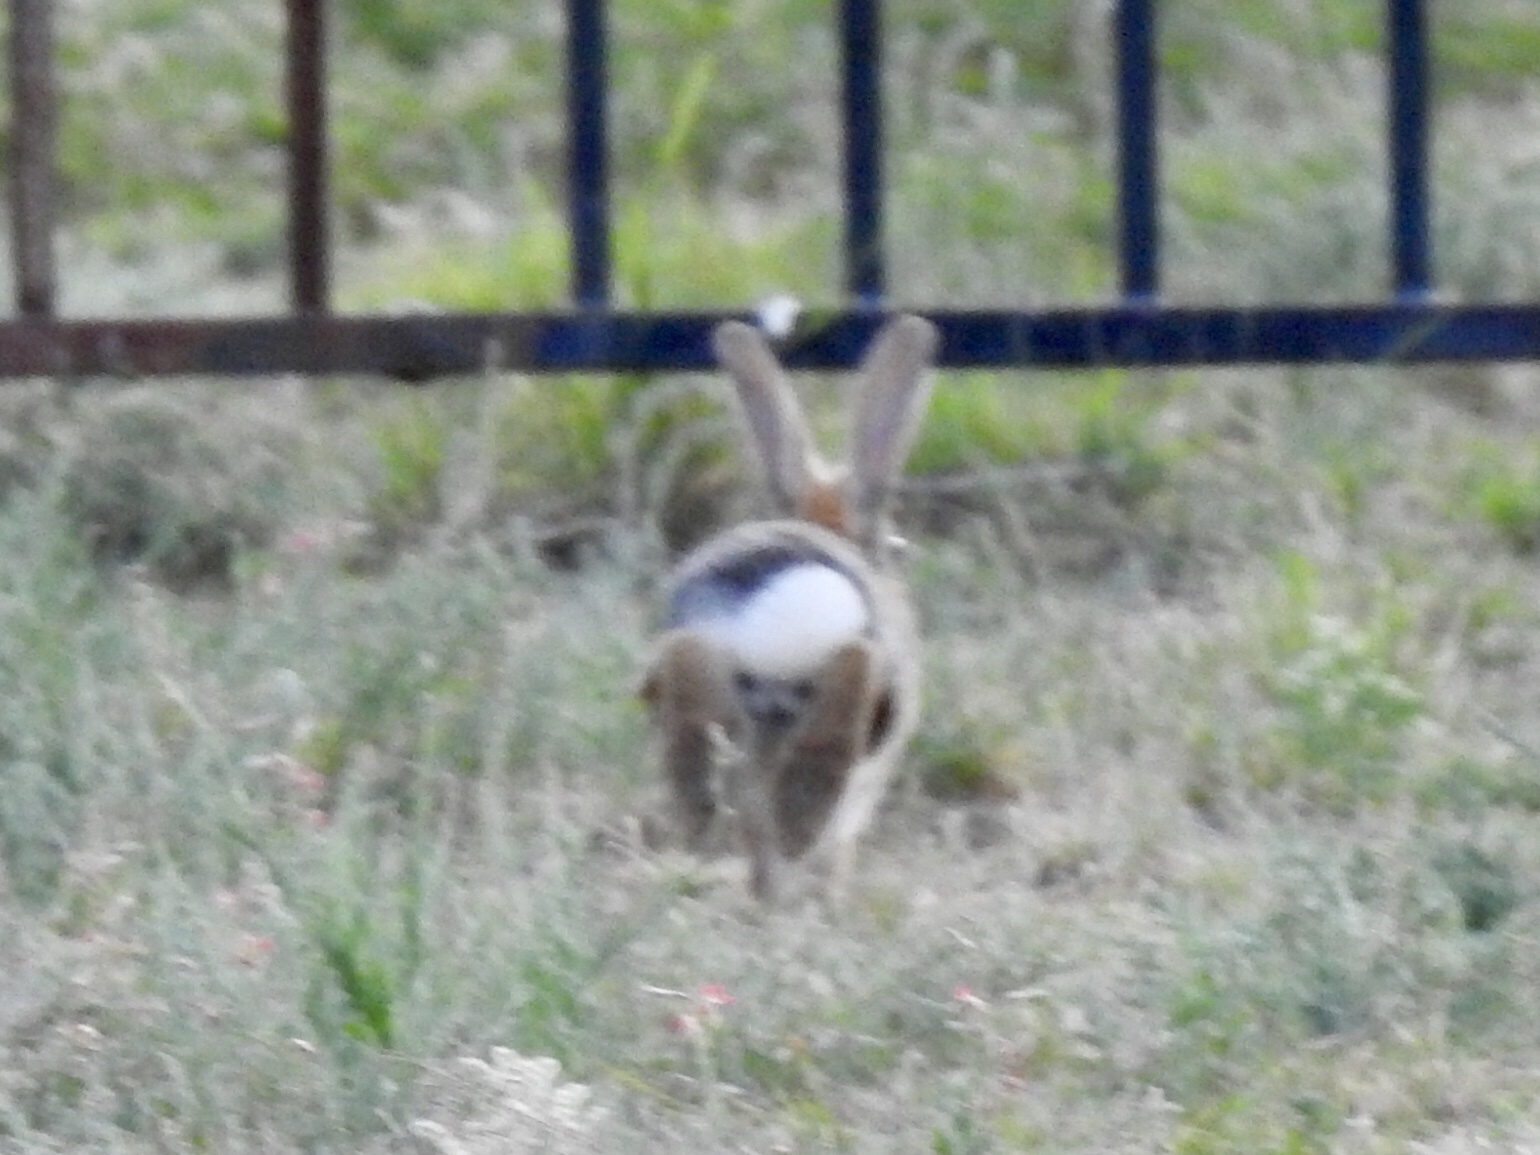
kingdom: Animalia
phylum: Chordata
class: Mammalia
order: Lagomorpha
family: Leporidae
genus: Sylvilagus
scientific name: Sylvilagus audubonii
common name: Desert cottontail
